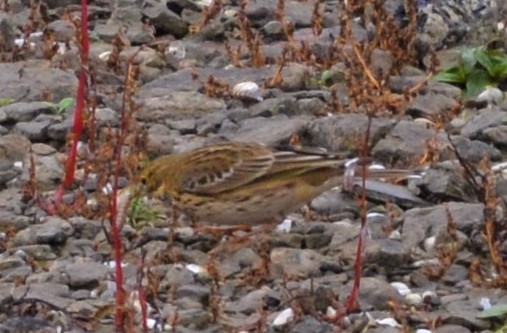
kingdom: Animalia
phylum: Chordata
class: Aves
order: Passeriformes
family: Motacillidae
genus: Anthus
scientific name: Anthus pratensis
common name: Meadow pipit
